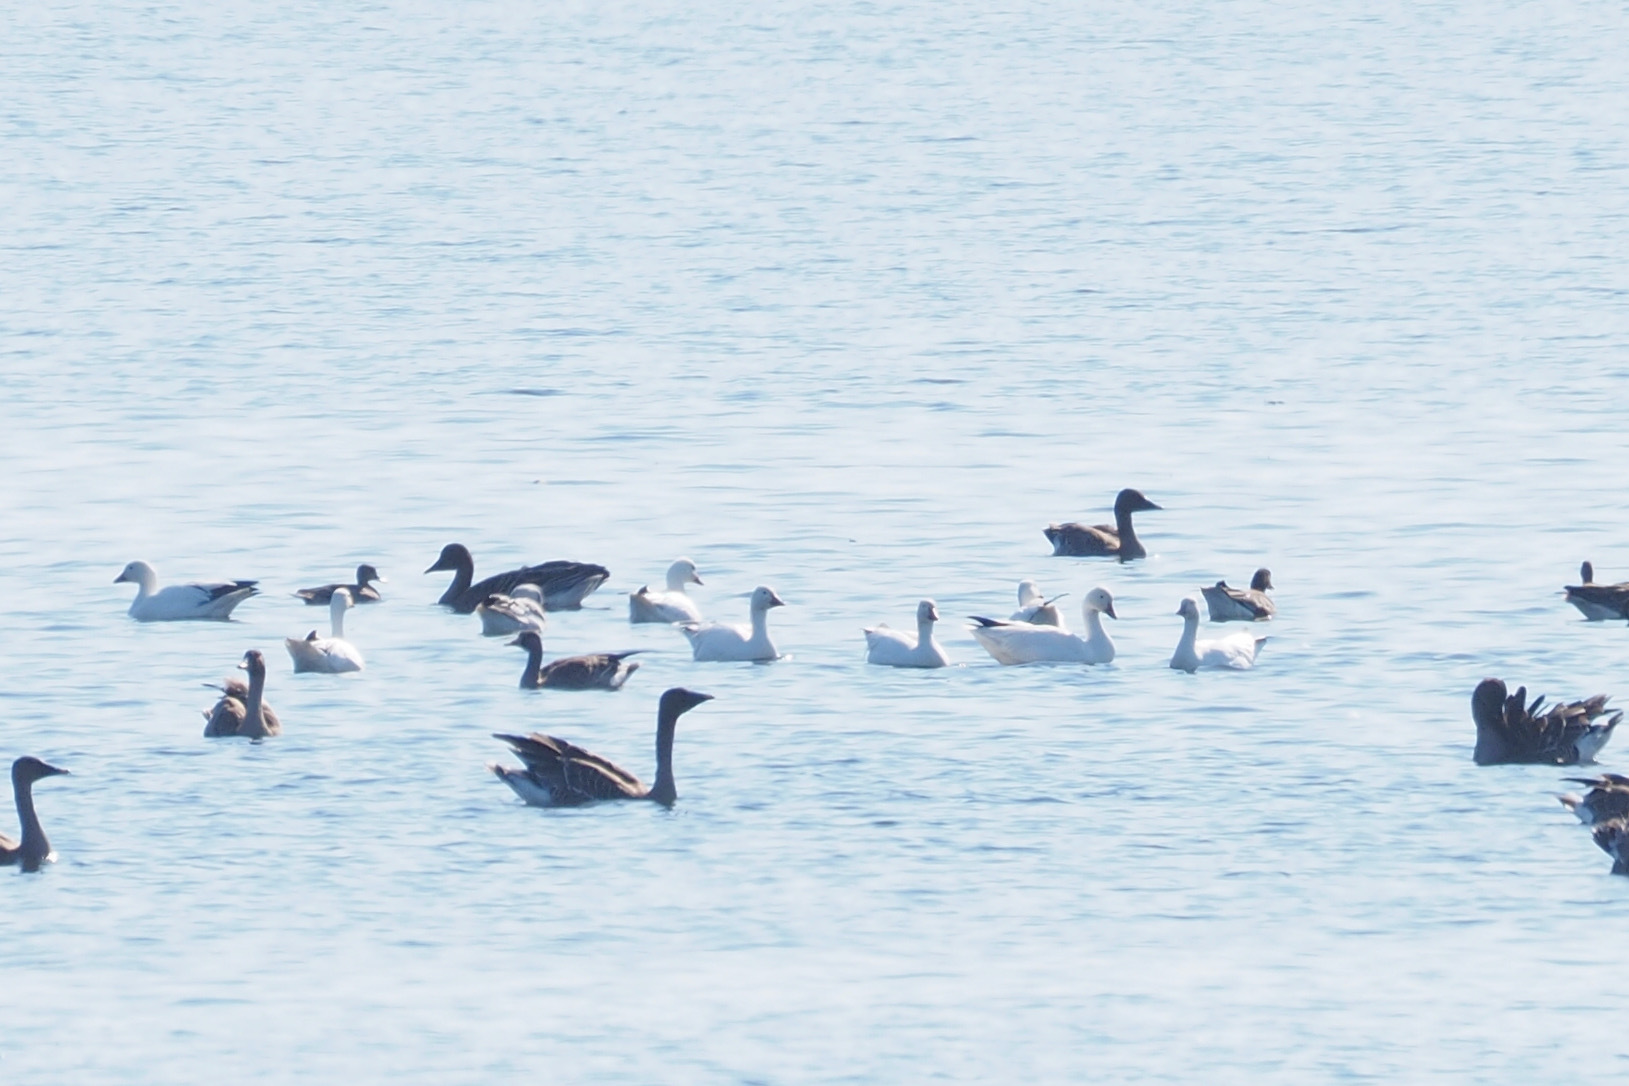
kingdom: Animalia
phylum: Chordata
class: Aves
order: Anseriformes
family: Anatidae
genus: Anser
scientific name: Anser caerulescens
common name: Snow goose
